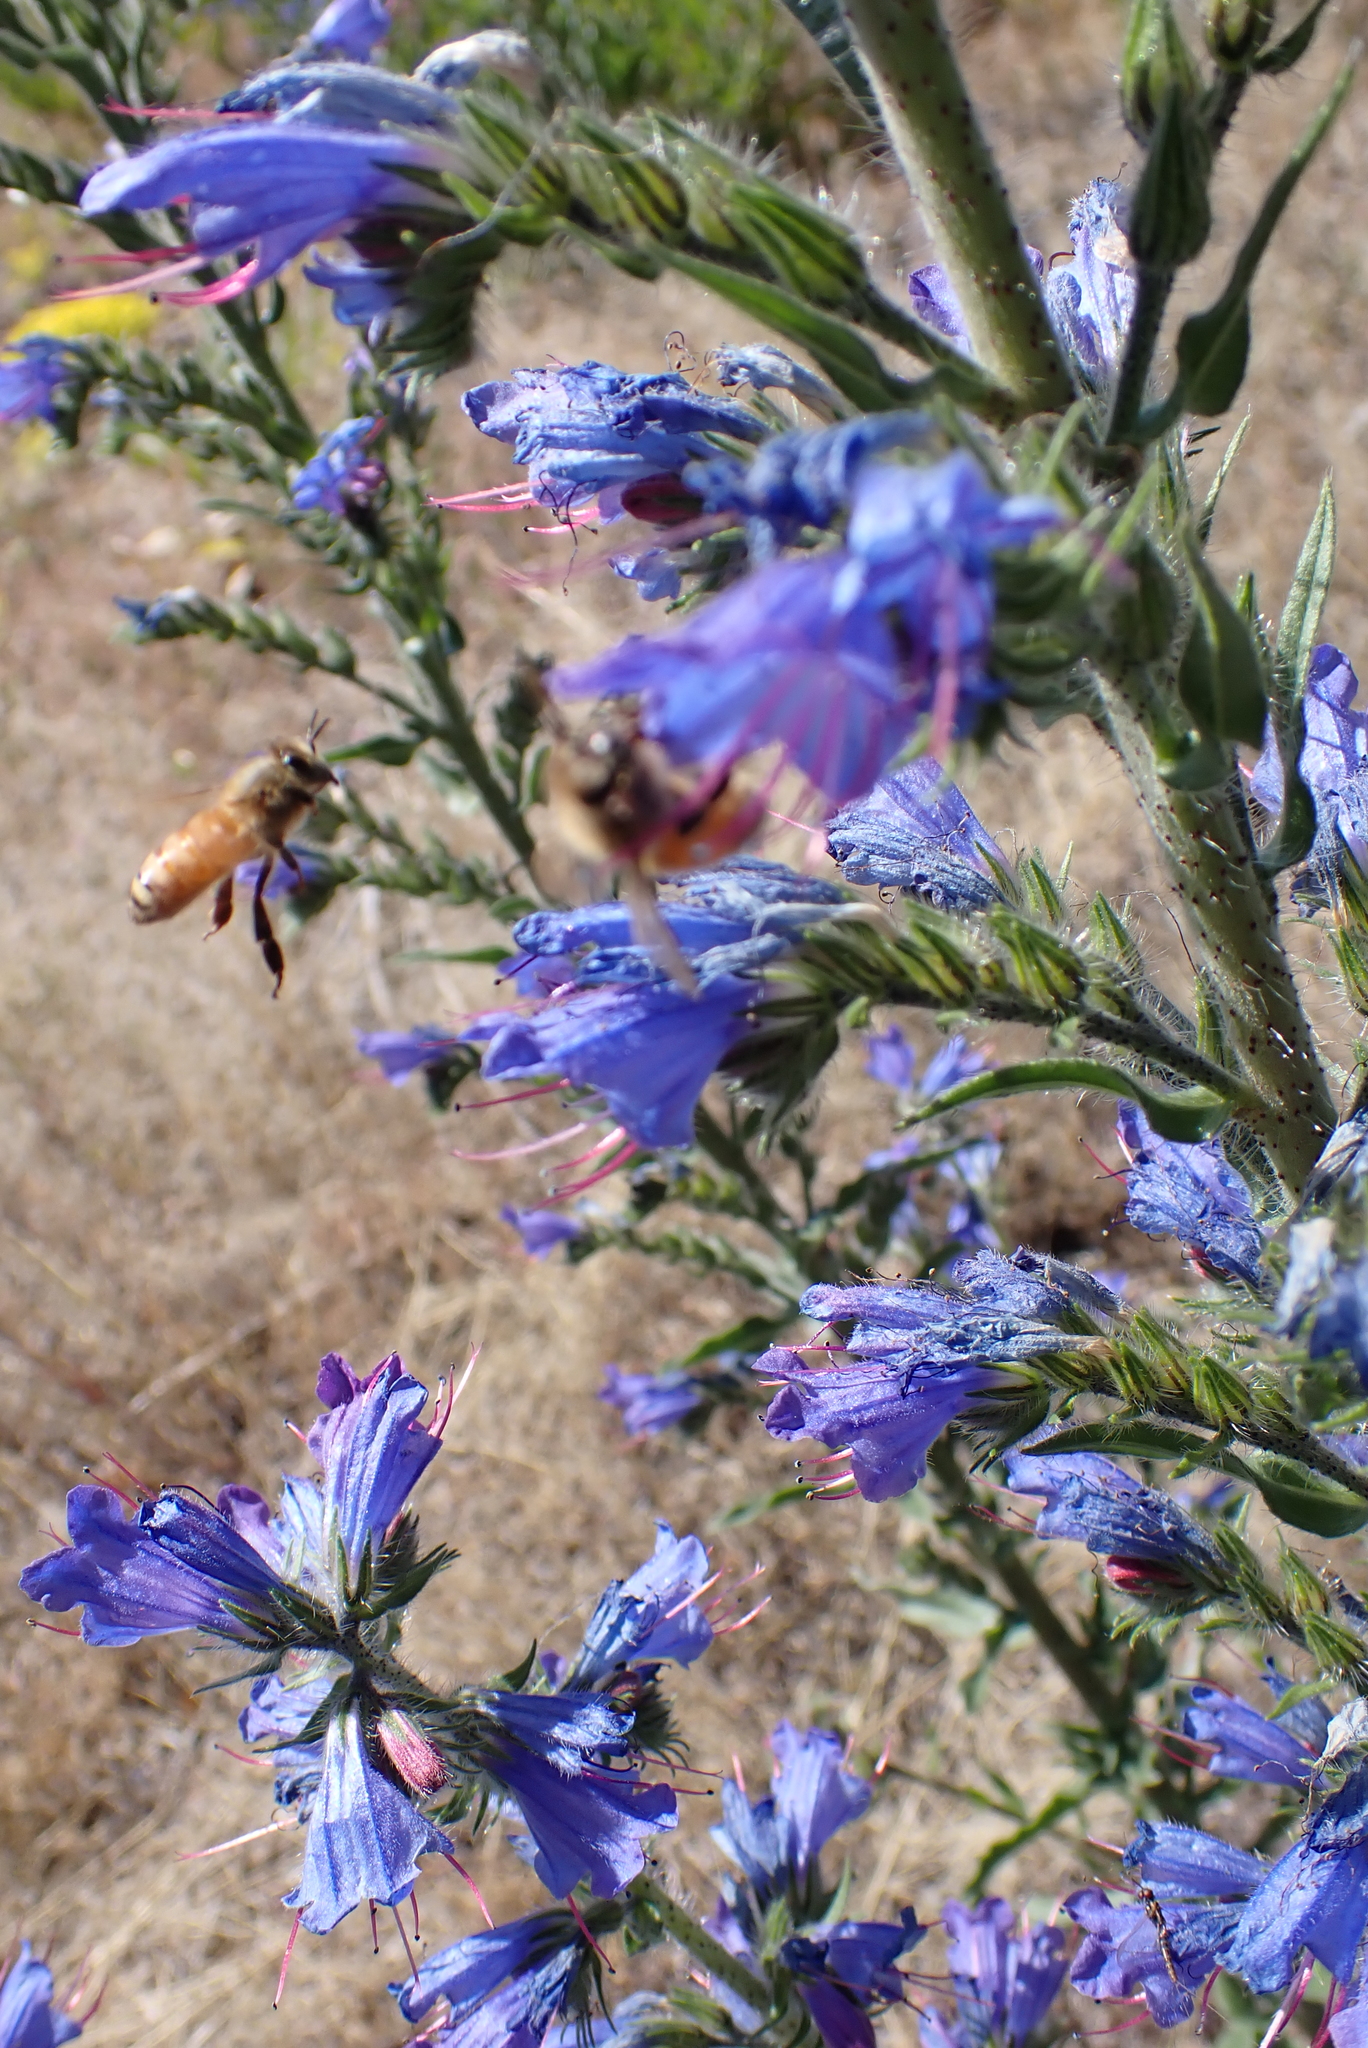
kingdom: Animalia
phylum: Arthropoda
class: Insecta
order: Hymenoptera
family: Apidae
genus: Apis
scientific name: Apis mellifera
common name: Honey bee
